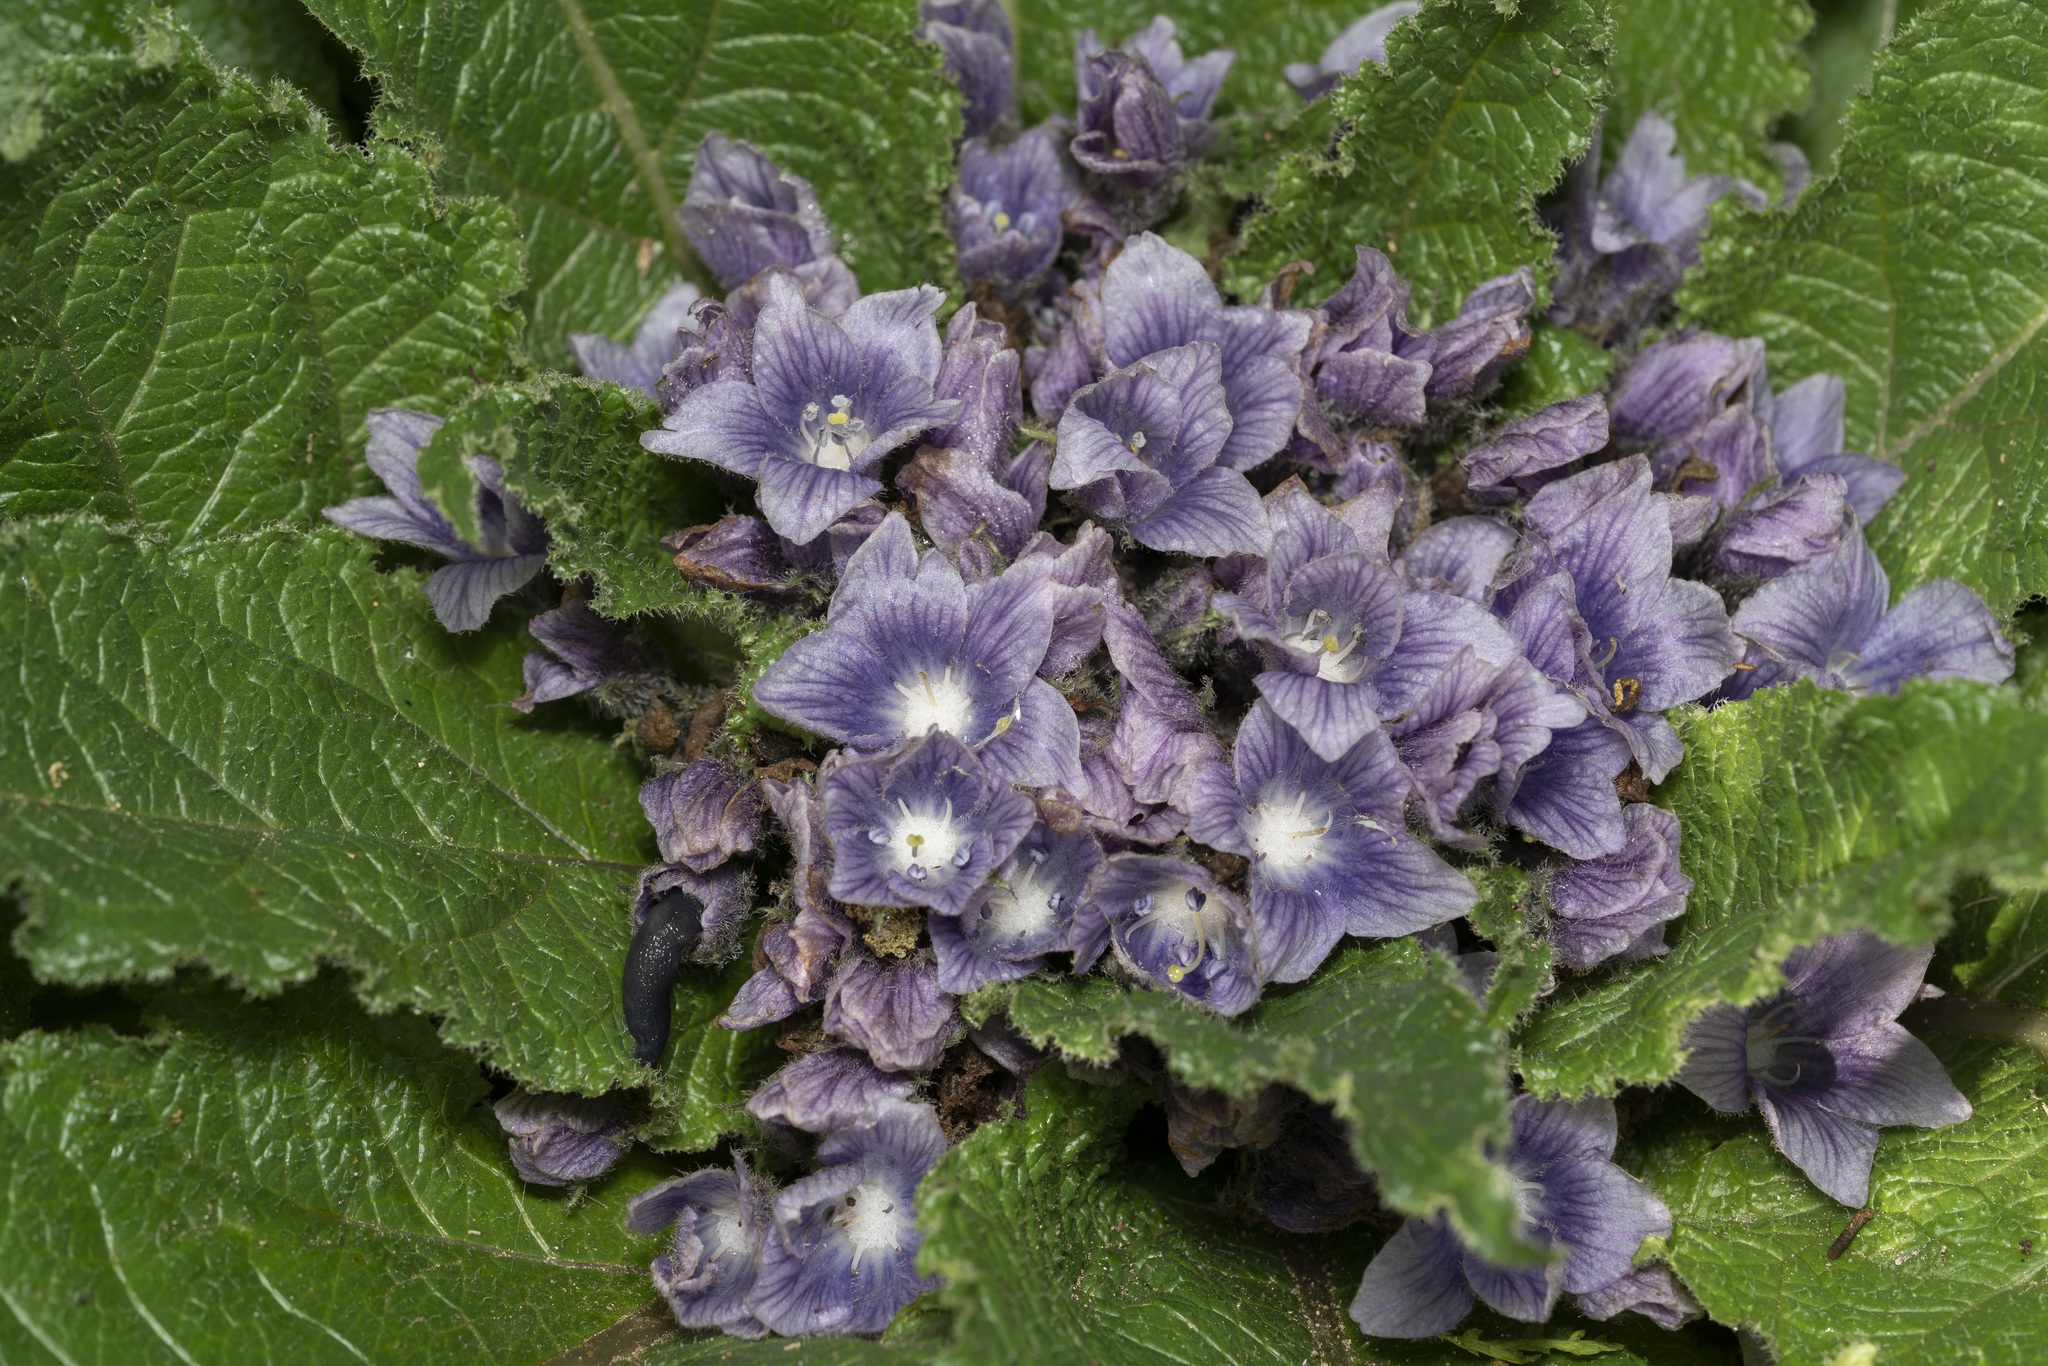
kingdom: Plantae
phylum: Tracheophyta
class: Magnoliopsida
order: Solanales
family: Solanaceae
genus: Mandragora
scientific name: Mandragora officinarum
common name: Mandrake
